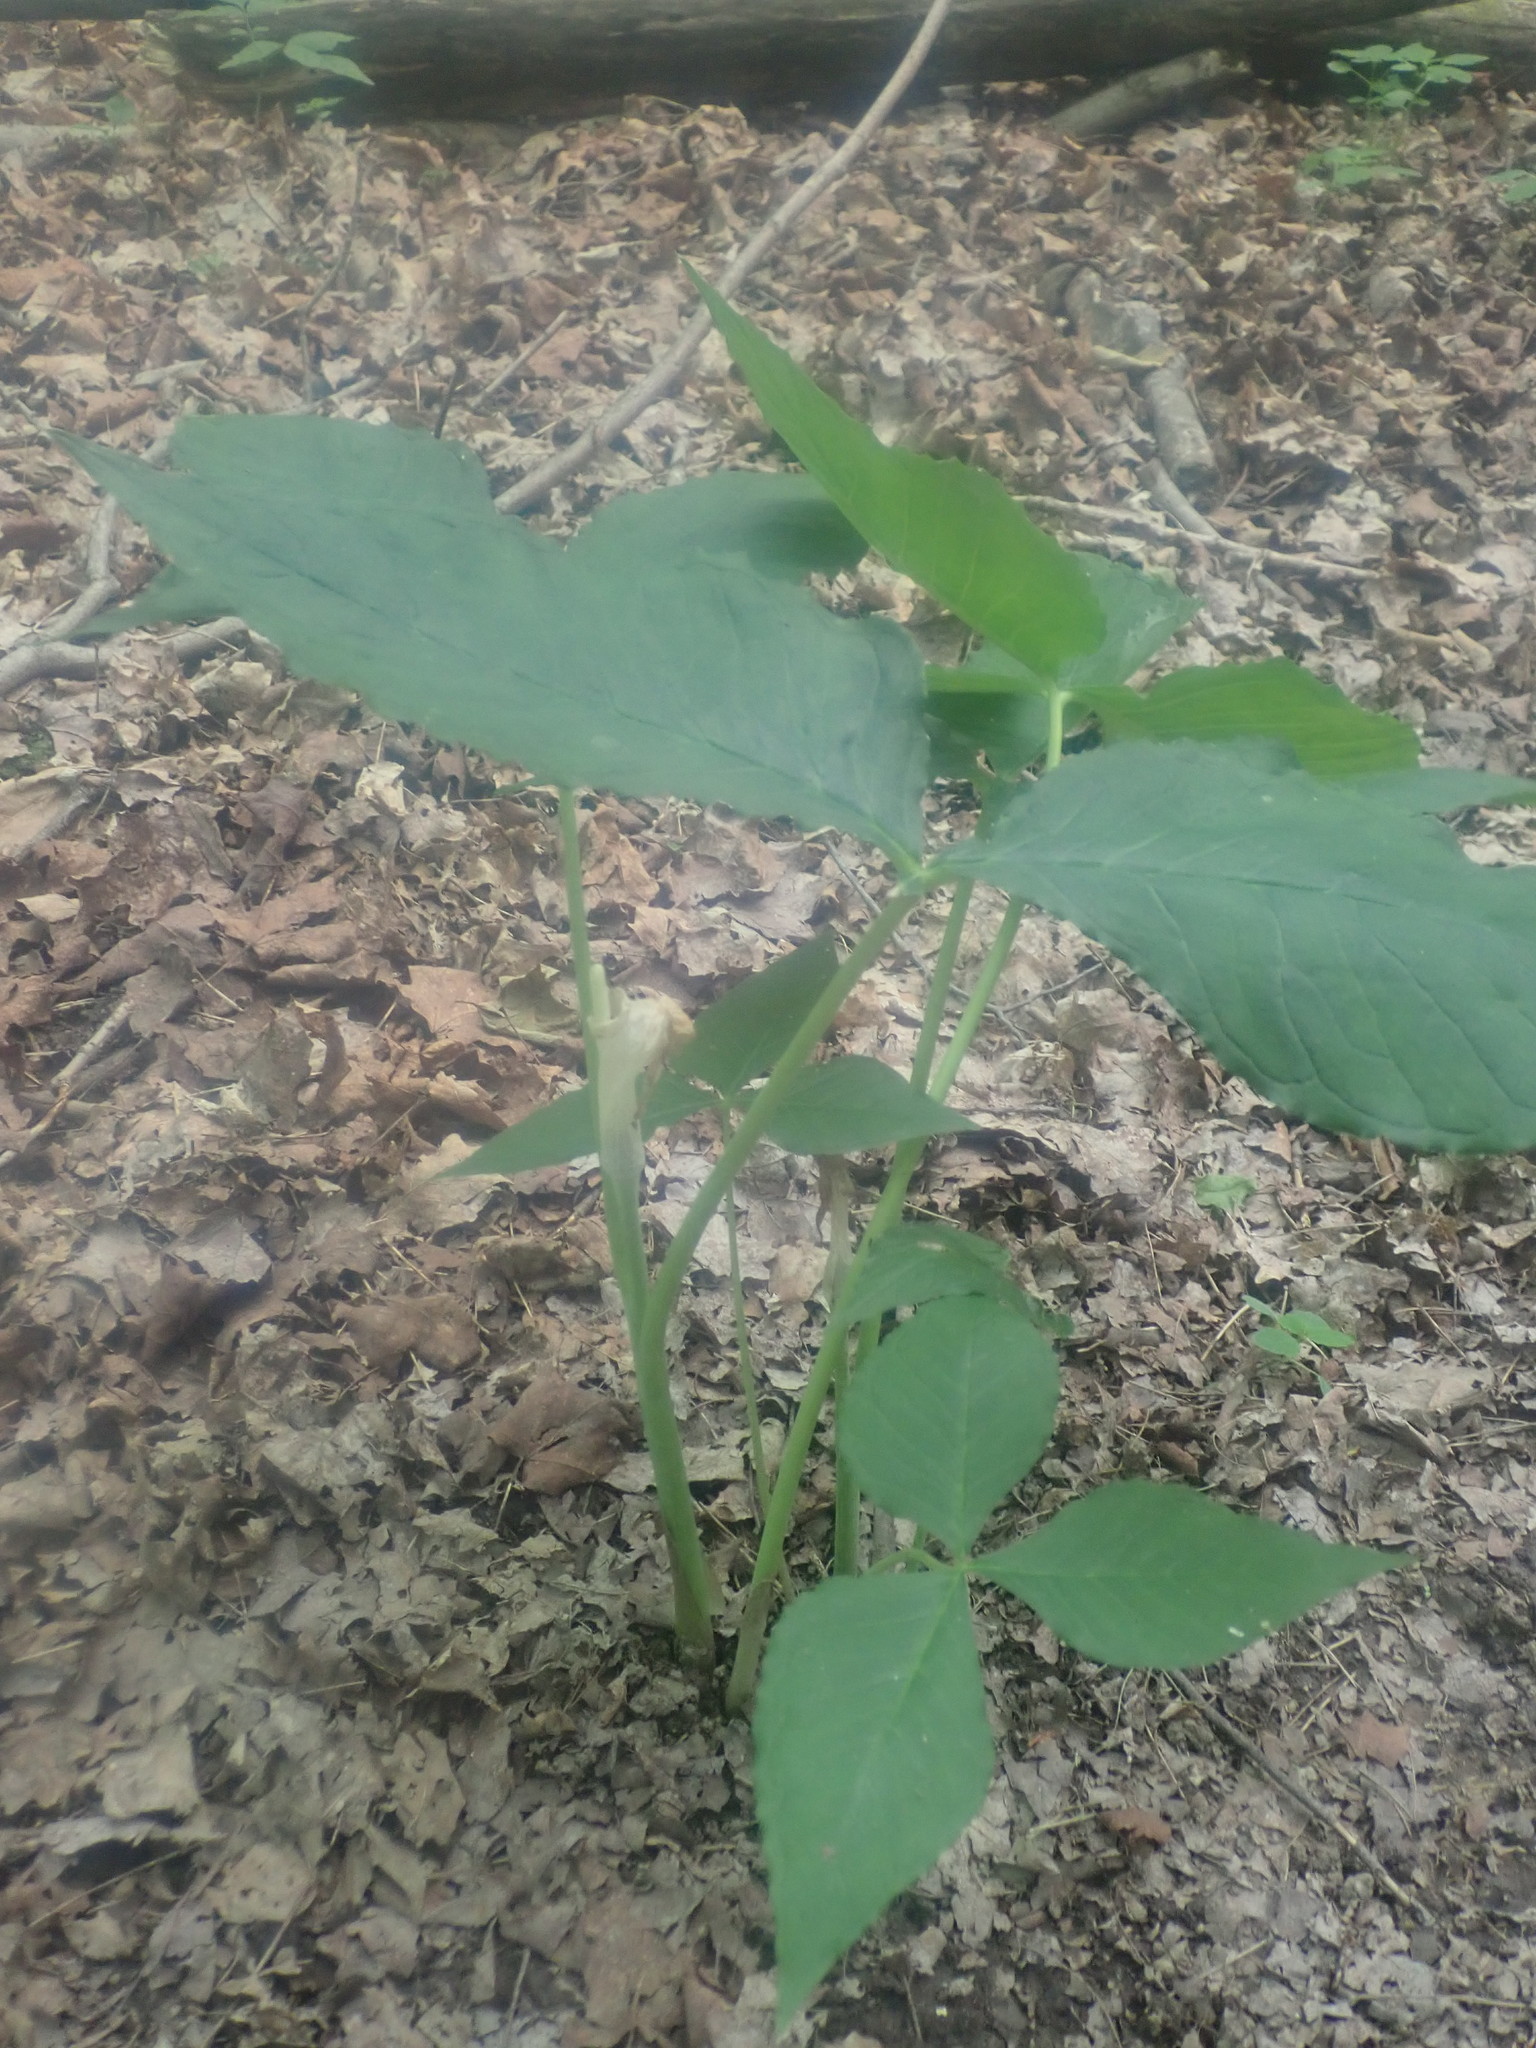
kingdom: Plantae
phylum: Tracheophyta
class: Liliopsida
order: Alismatales
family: Araceae
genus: Arisaema
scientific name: Arisaema triphyllum
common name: Jack-in-the-pulpit
